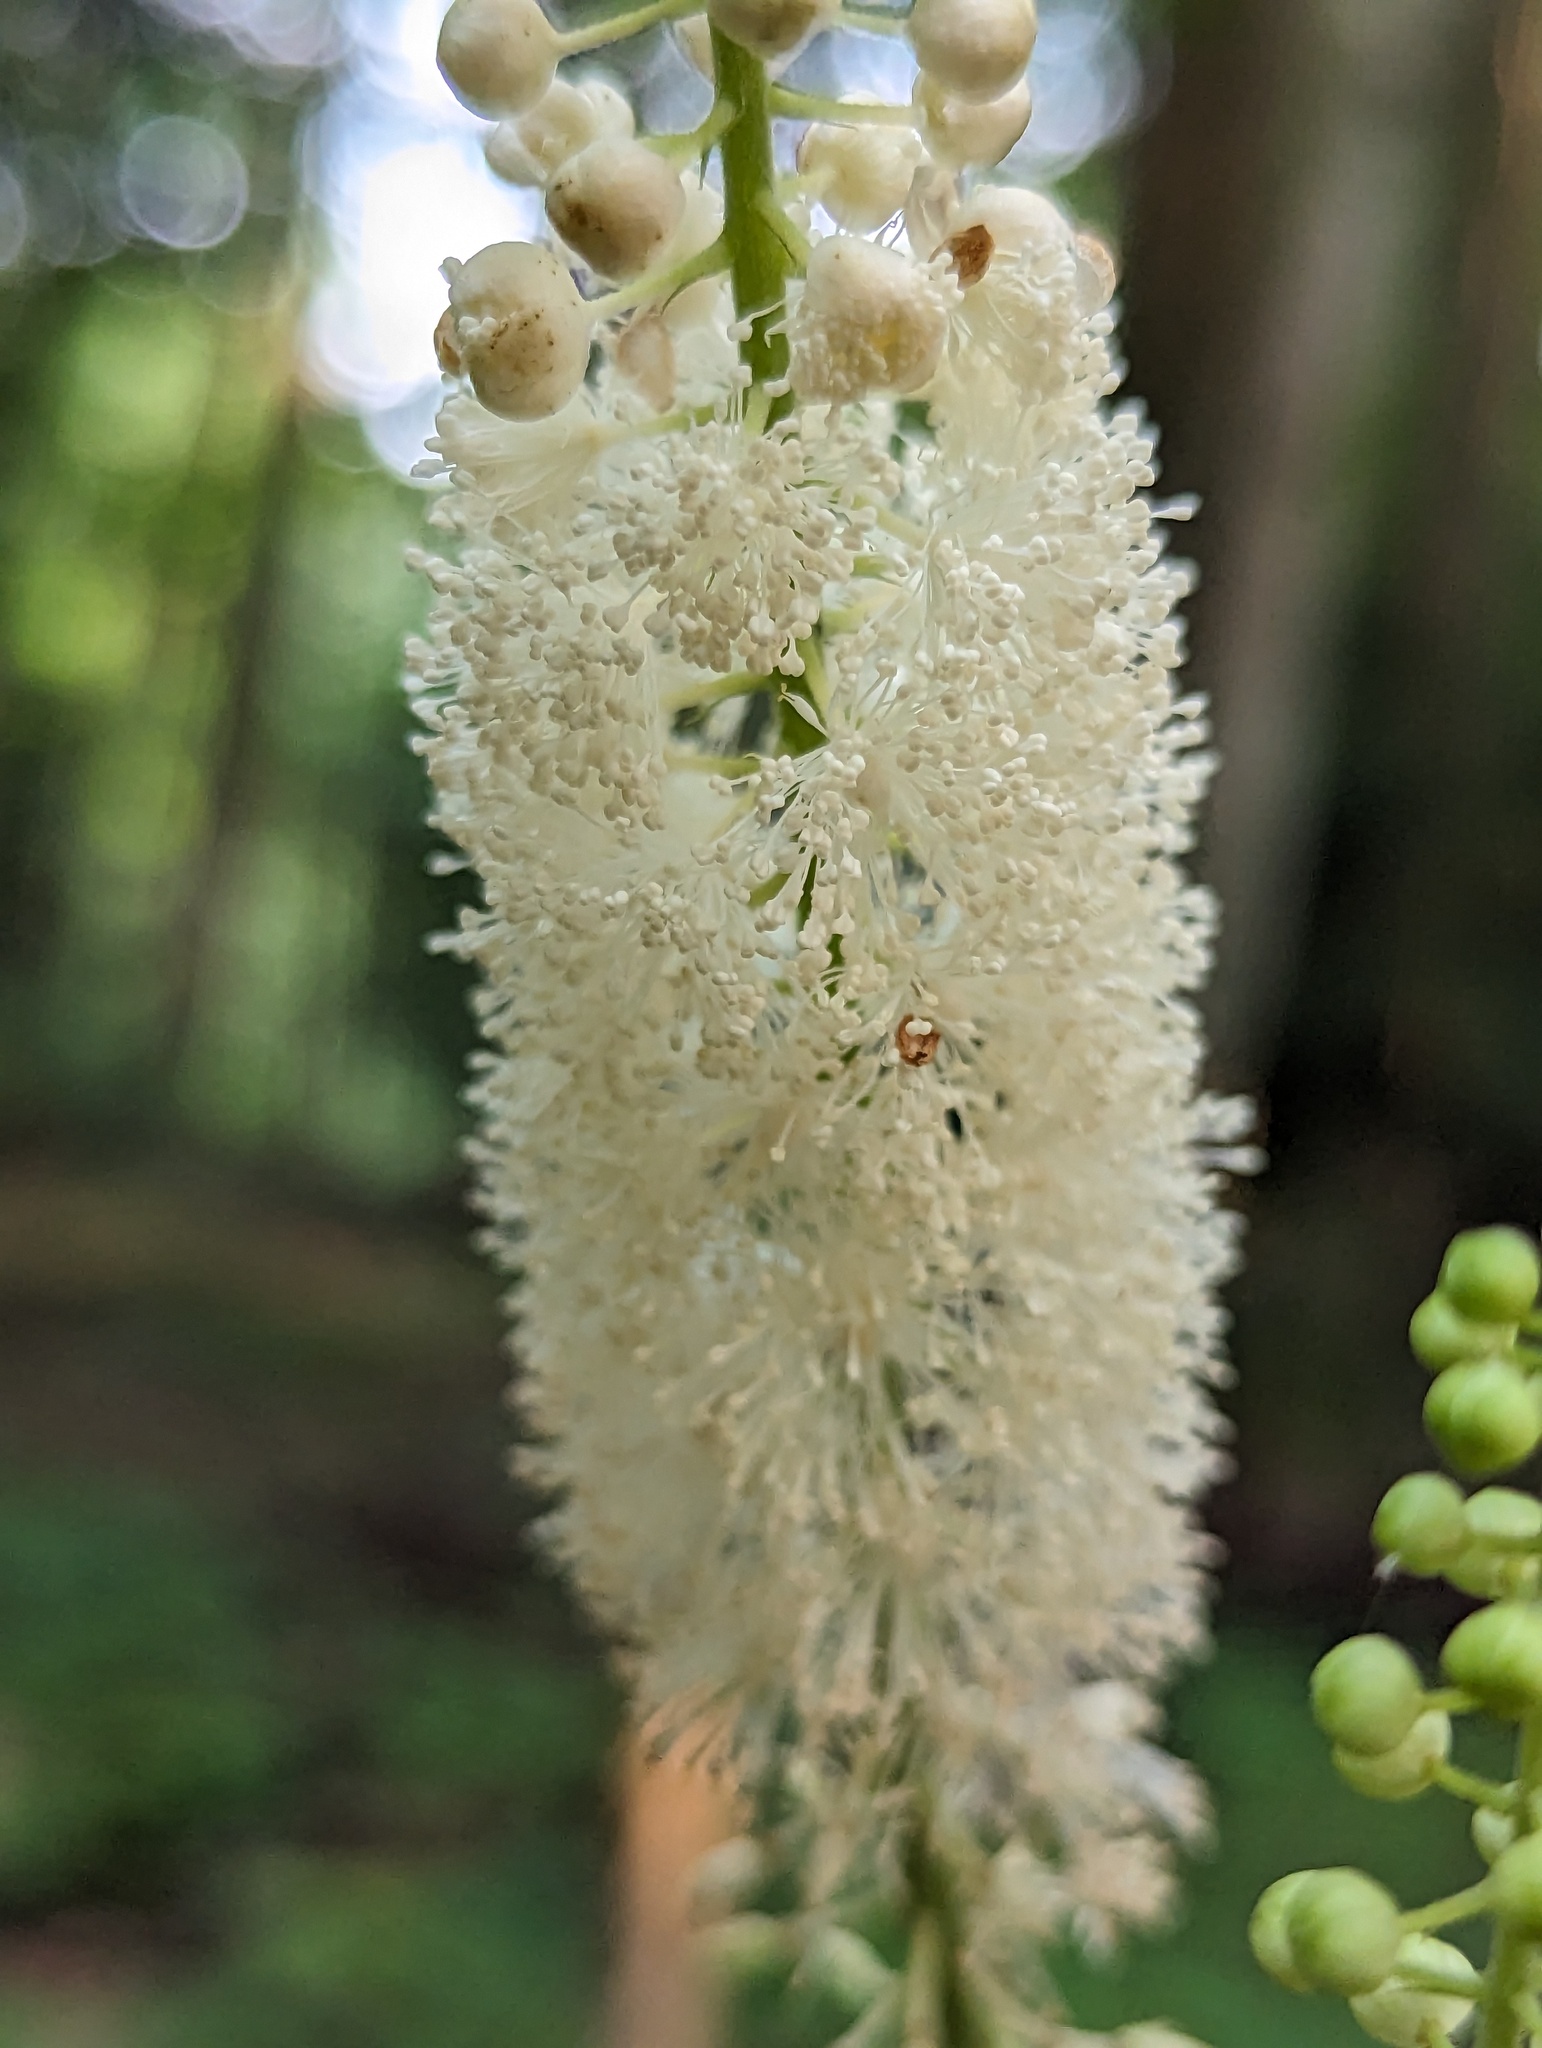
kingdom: Plantae
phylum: Tracheophyta
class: Magnoliopsida
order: Ranunculales
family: Ranunculaceae
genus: Actaea
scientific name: Actaea racemosa
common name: Black cohosh
